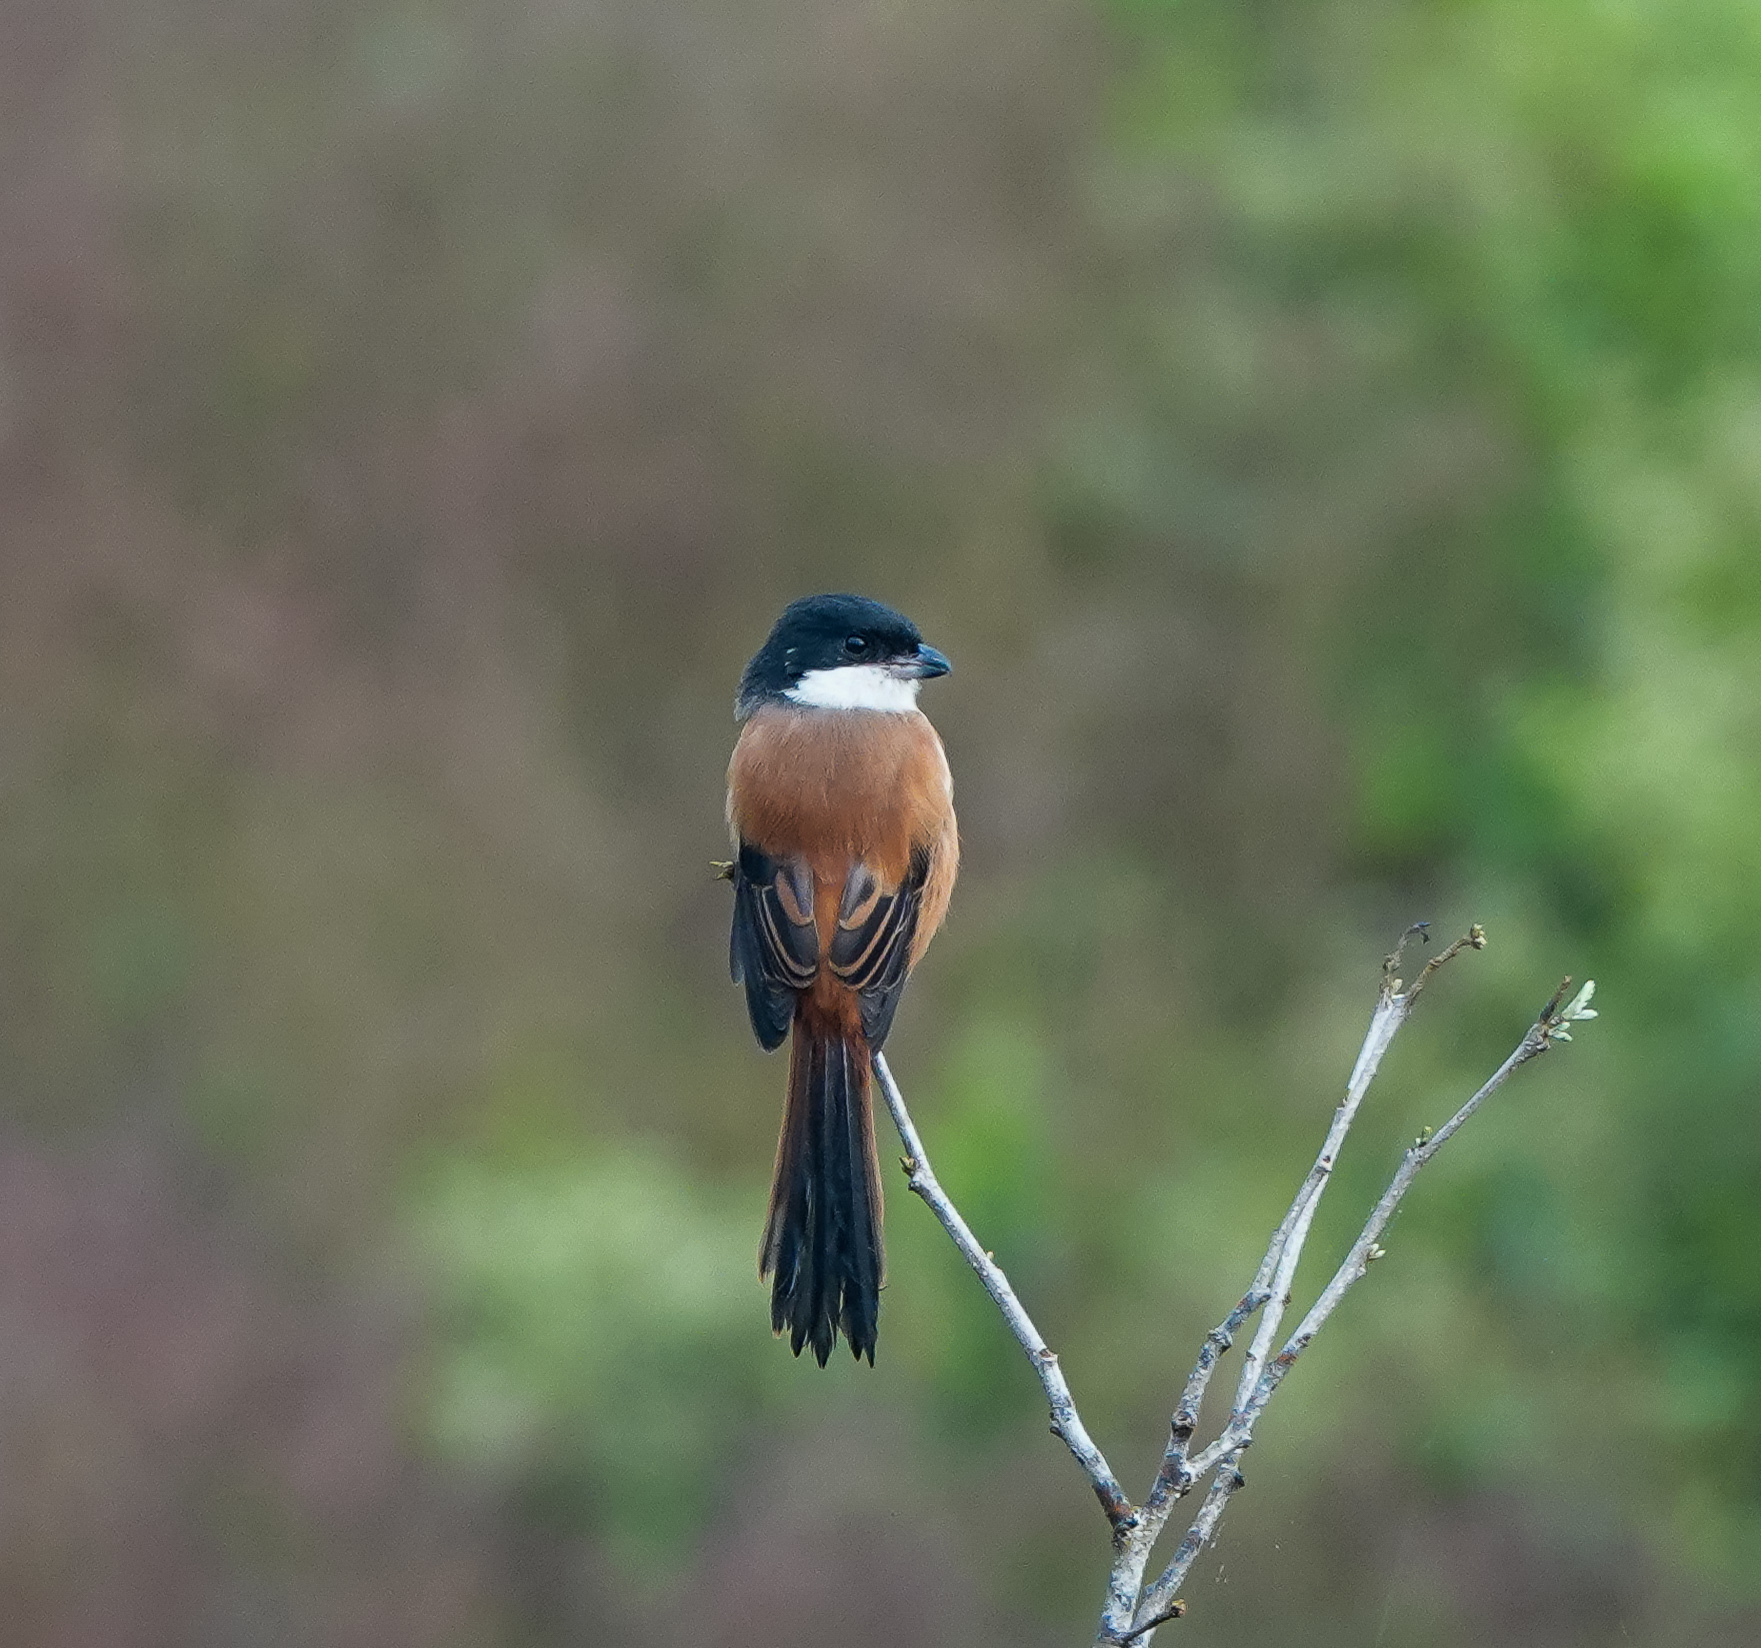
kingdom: Animalia
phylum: Chordata
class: Aves
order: Passeriformes
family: Laniidae
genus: Lanius
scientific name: Lanius schach
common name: Long-tailed shrike
